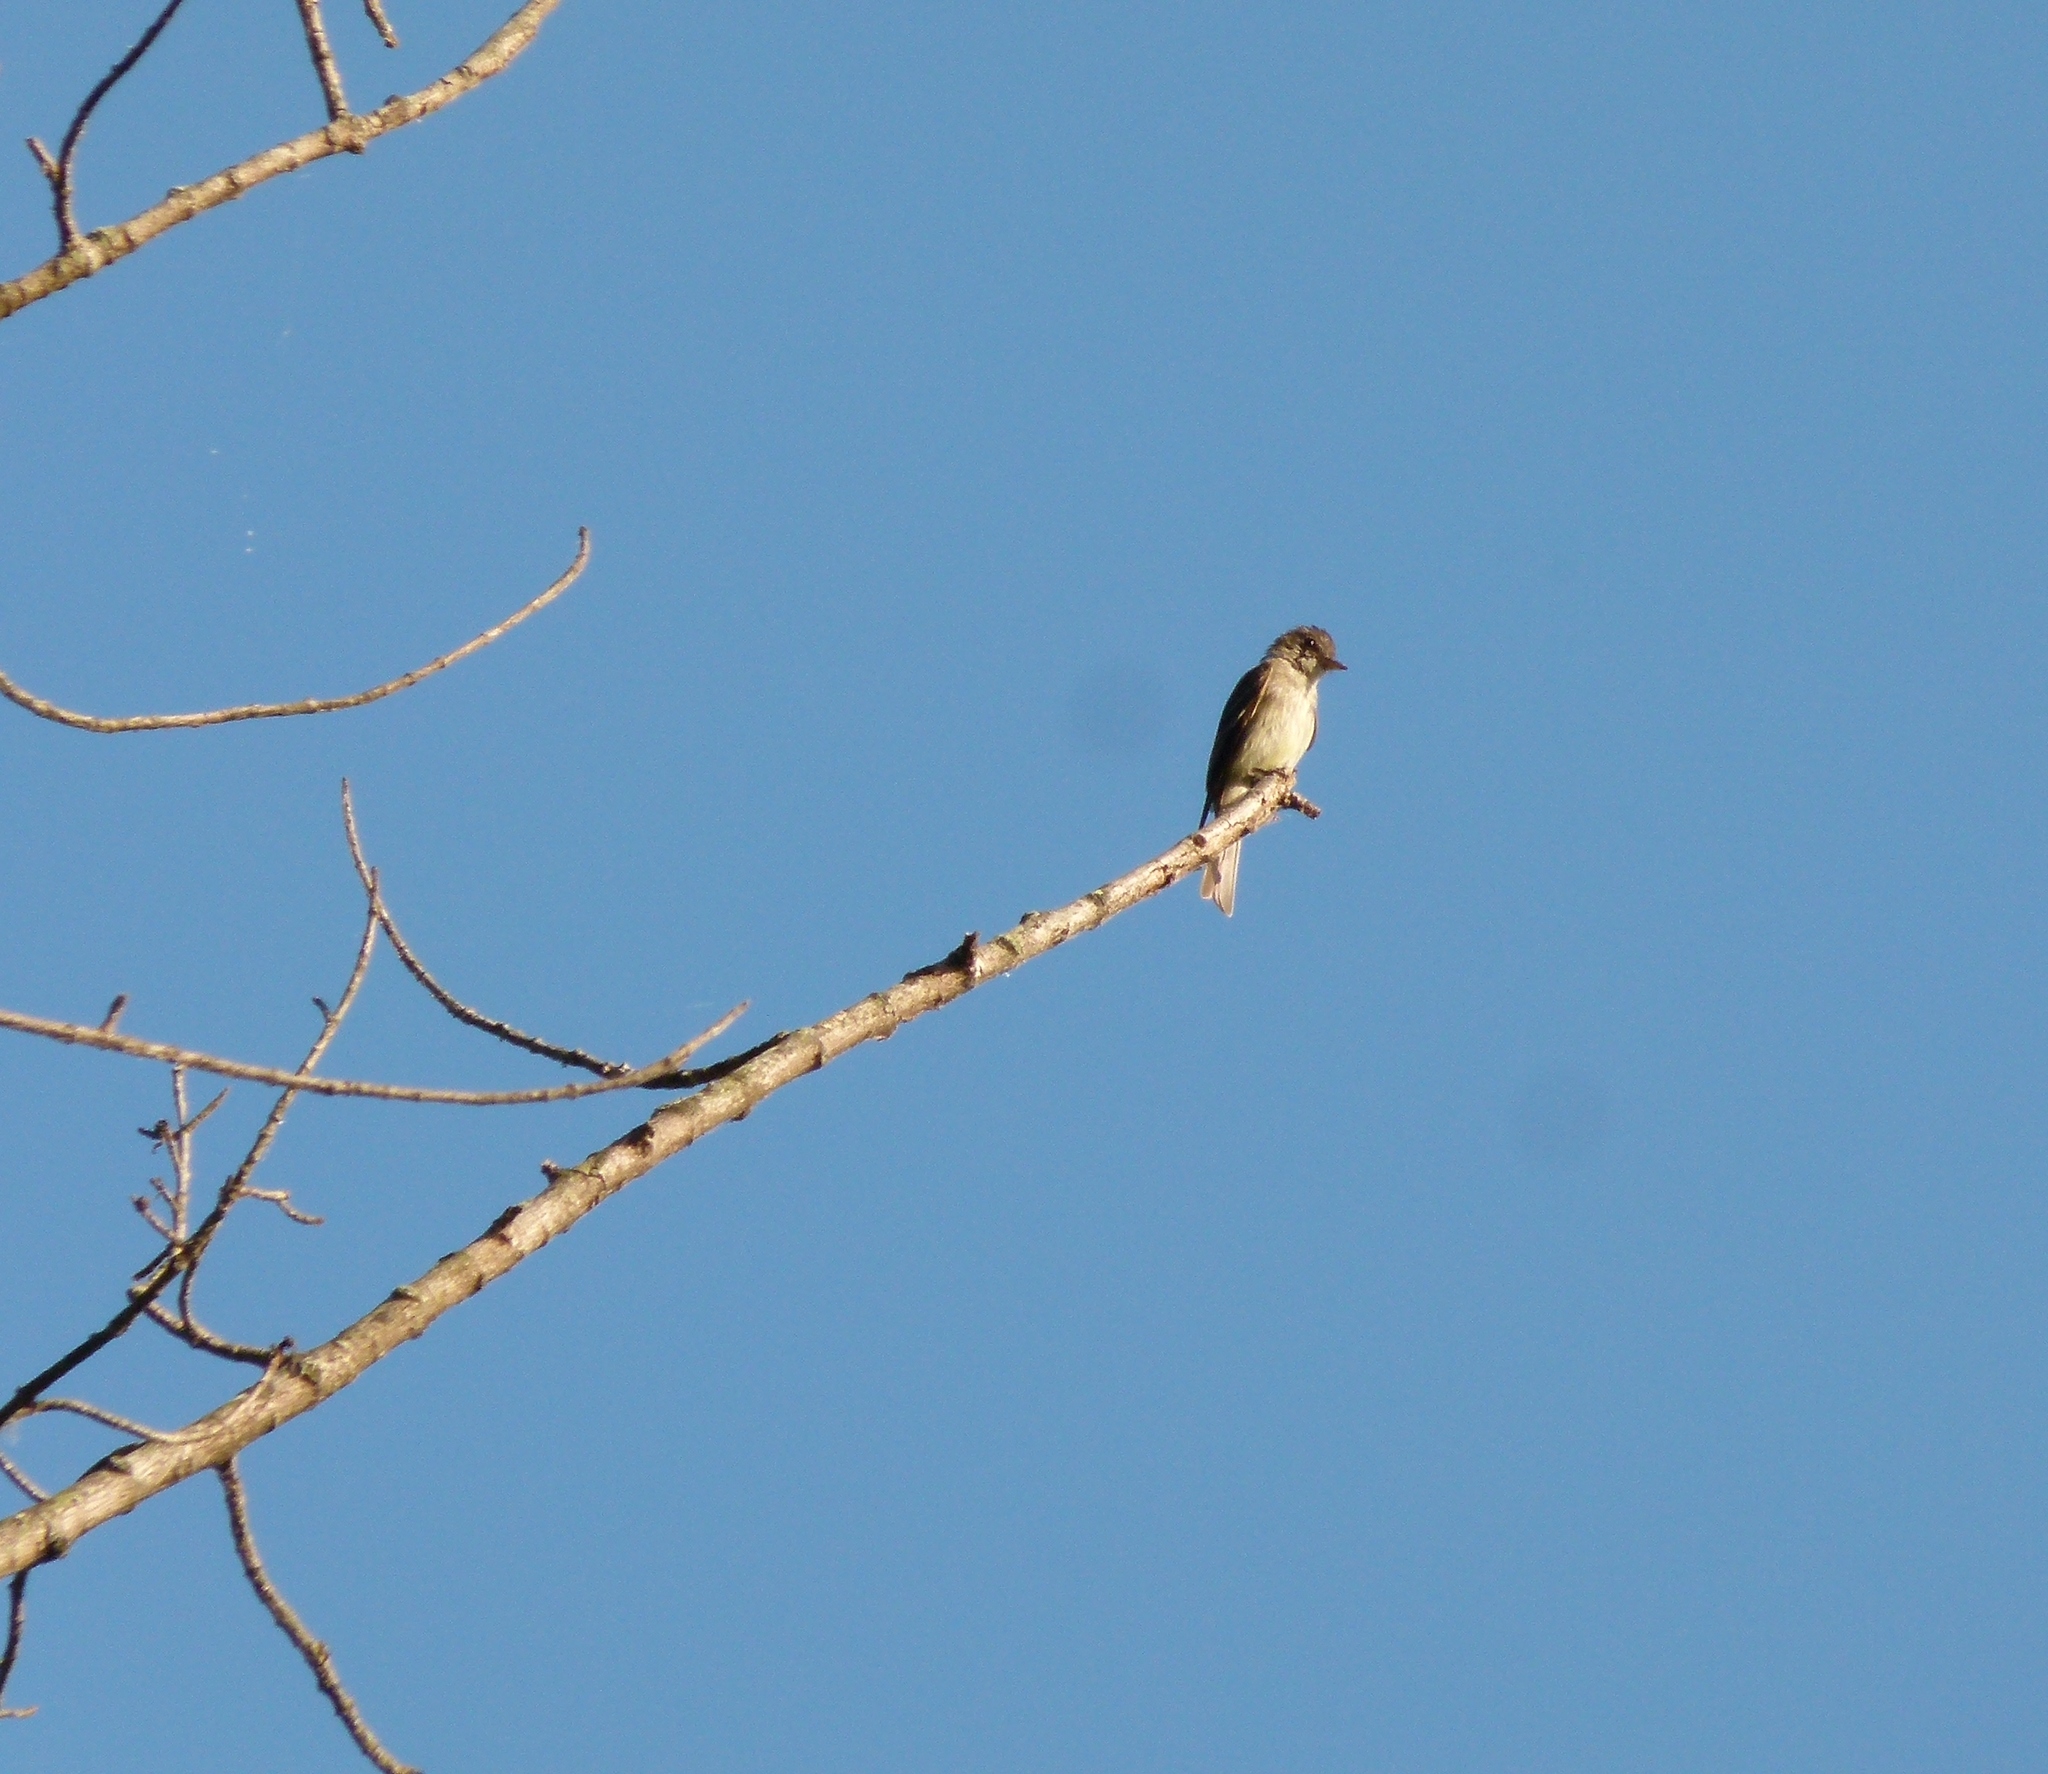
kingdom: Animalia
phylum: Chordata
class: Aves
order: Passeriformes
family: Tyrannidae
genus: Contopus
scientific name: Contopus virens
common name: Eastern wood-pewee
